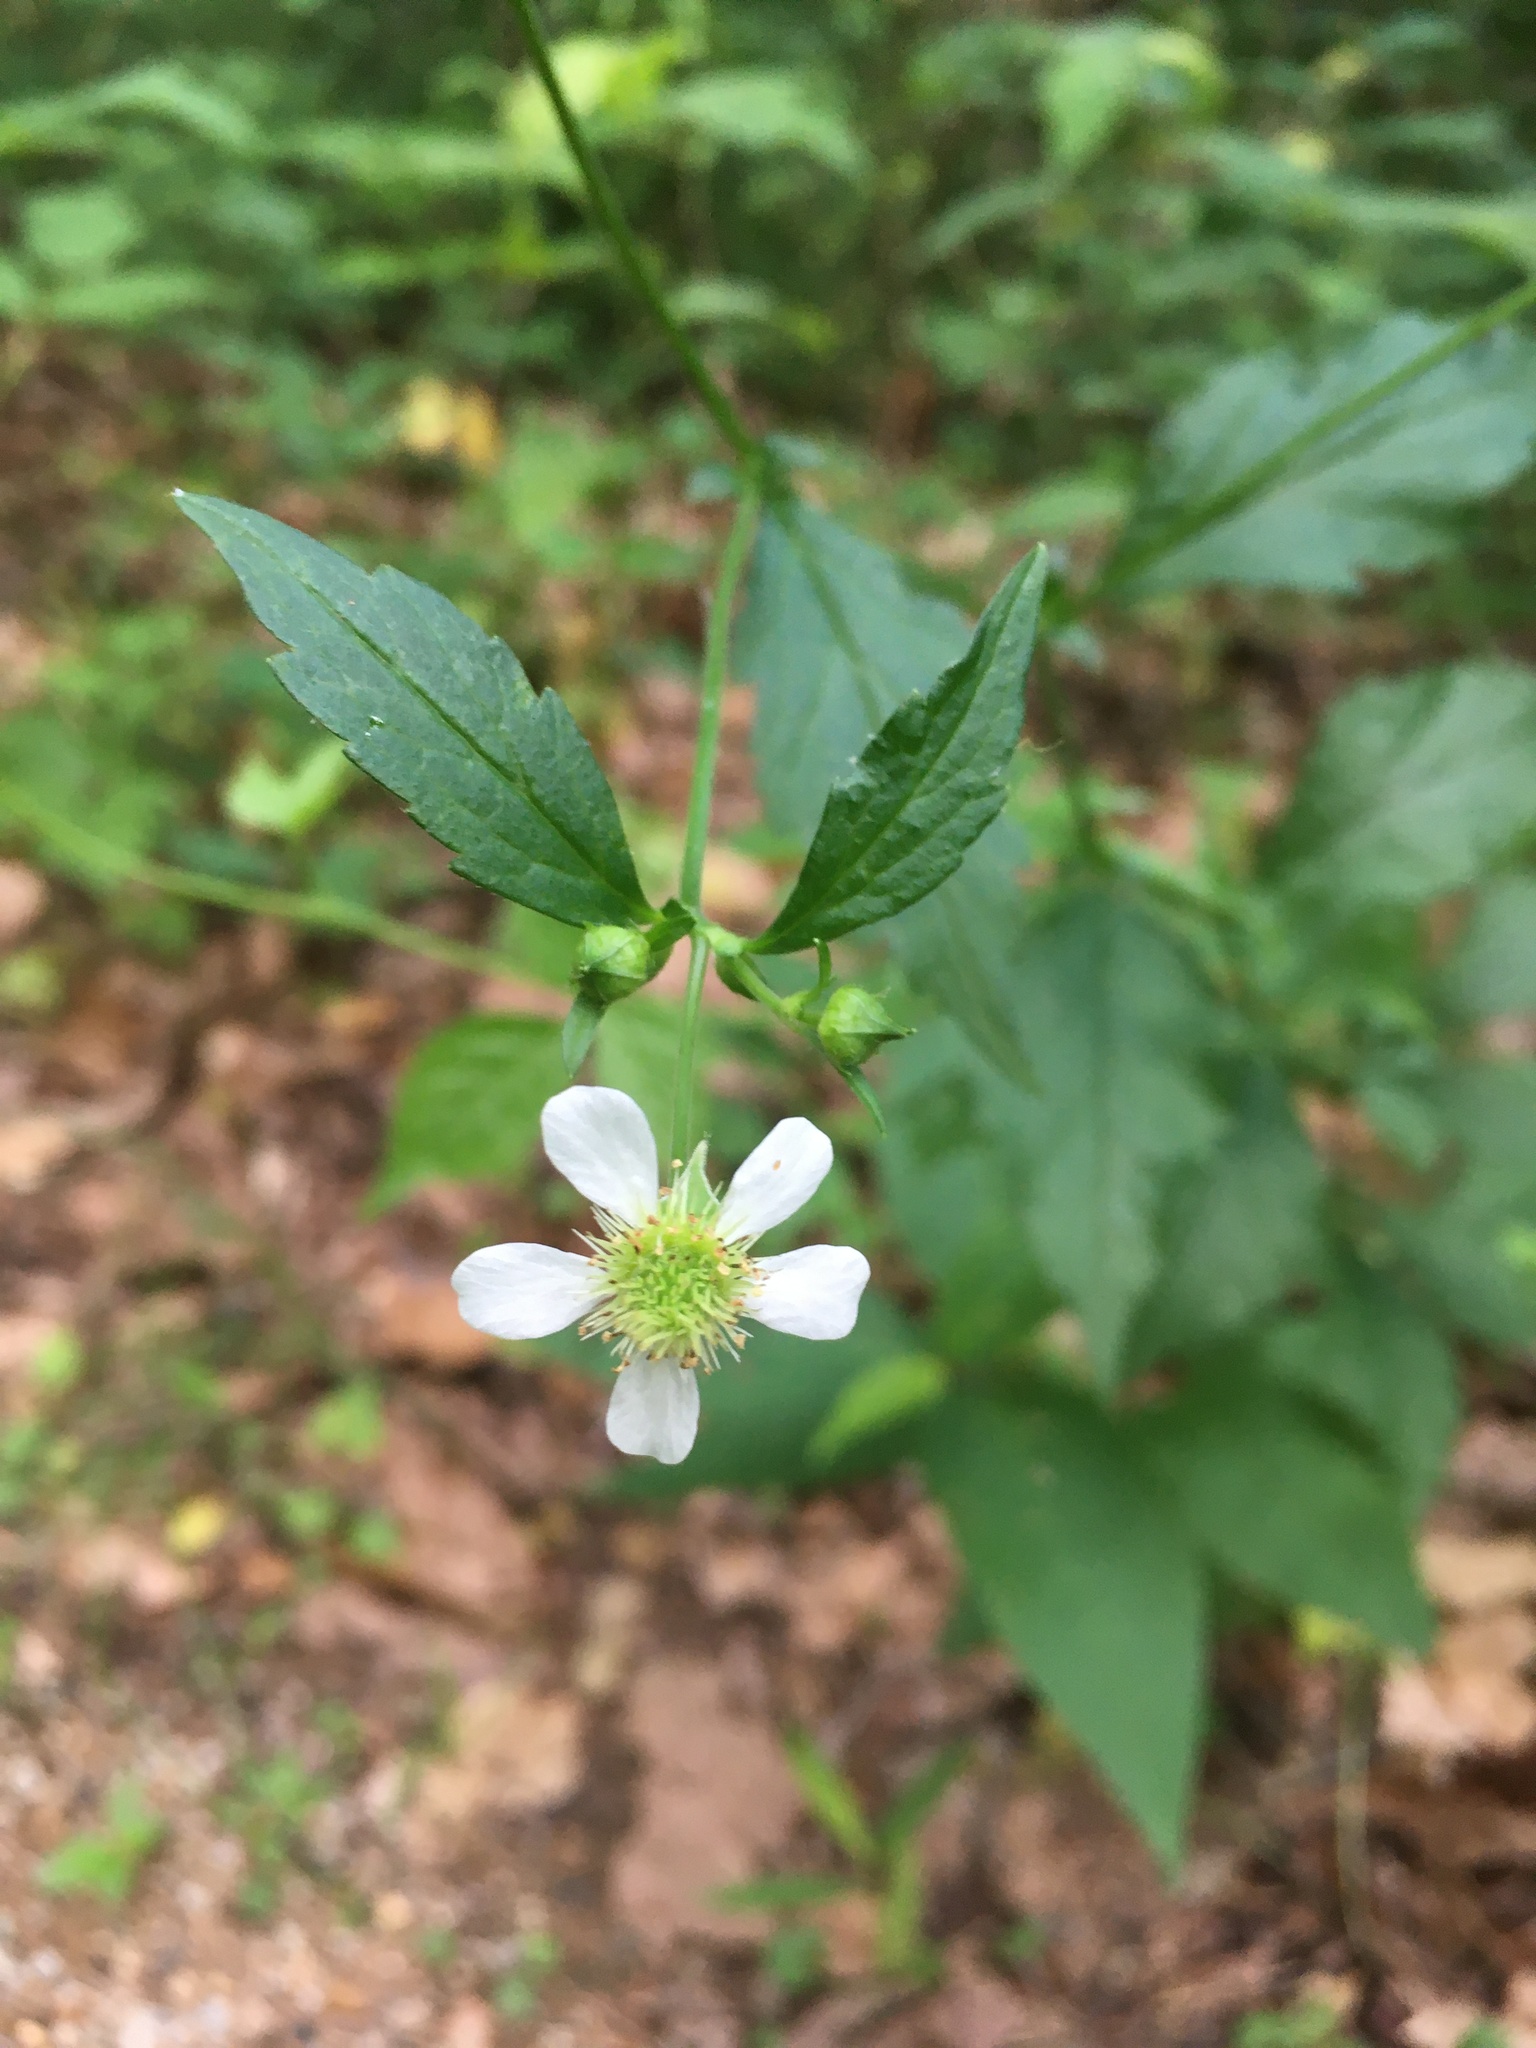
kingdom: Plantae
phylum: Tracheophyta
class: Magnoliopsida
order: Rosales
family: Rosaceae
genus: Geum
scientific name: Geum canadense
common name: White avens
